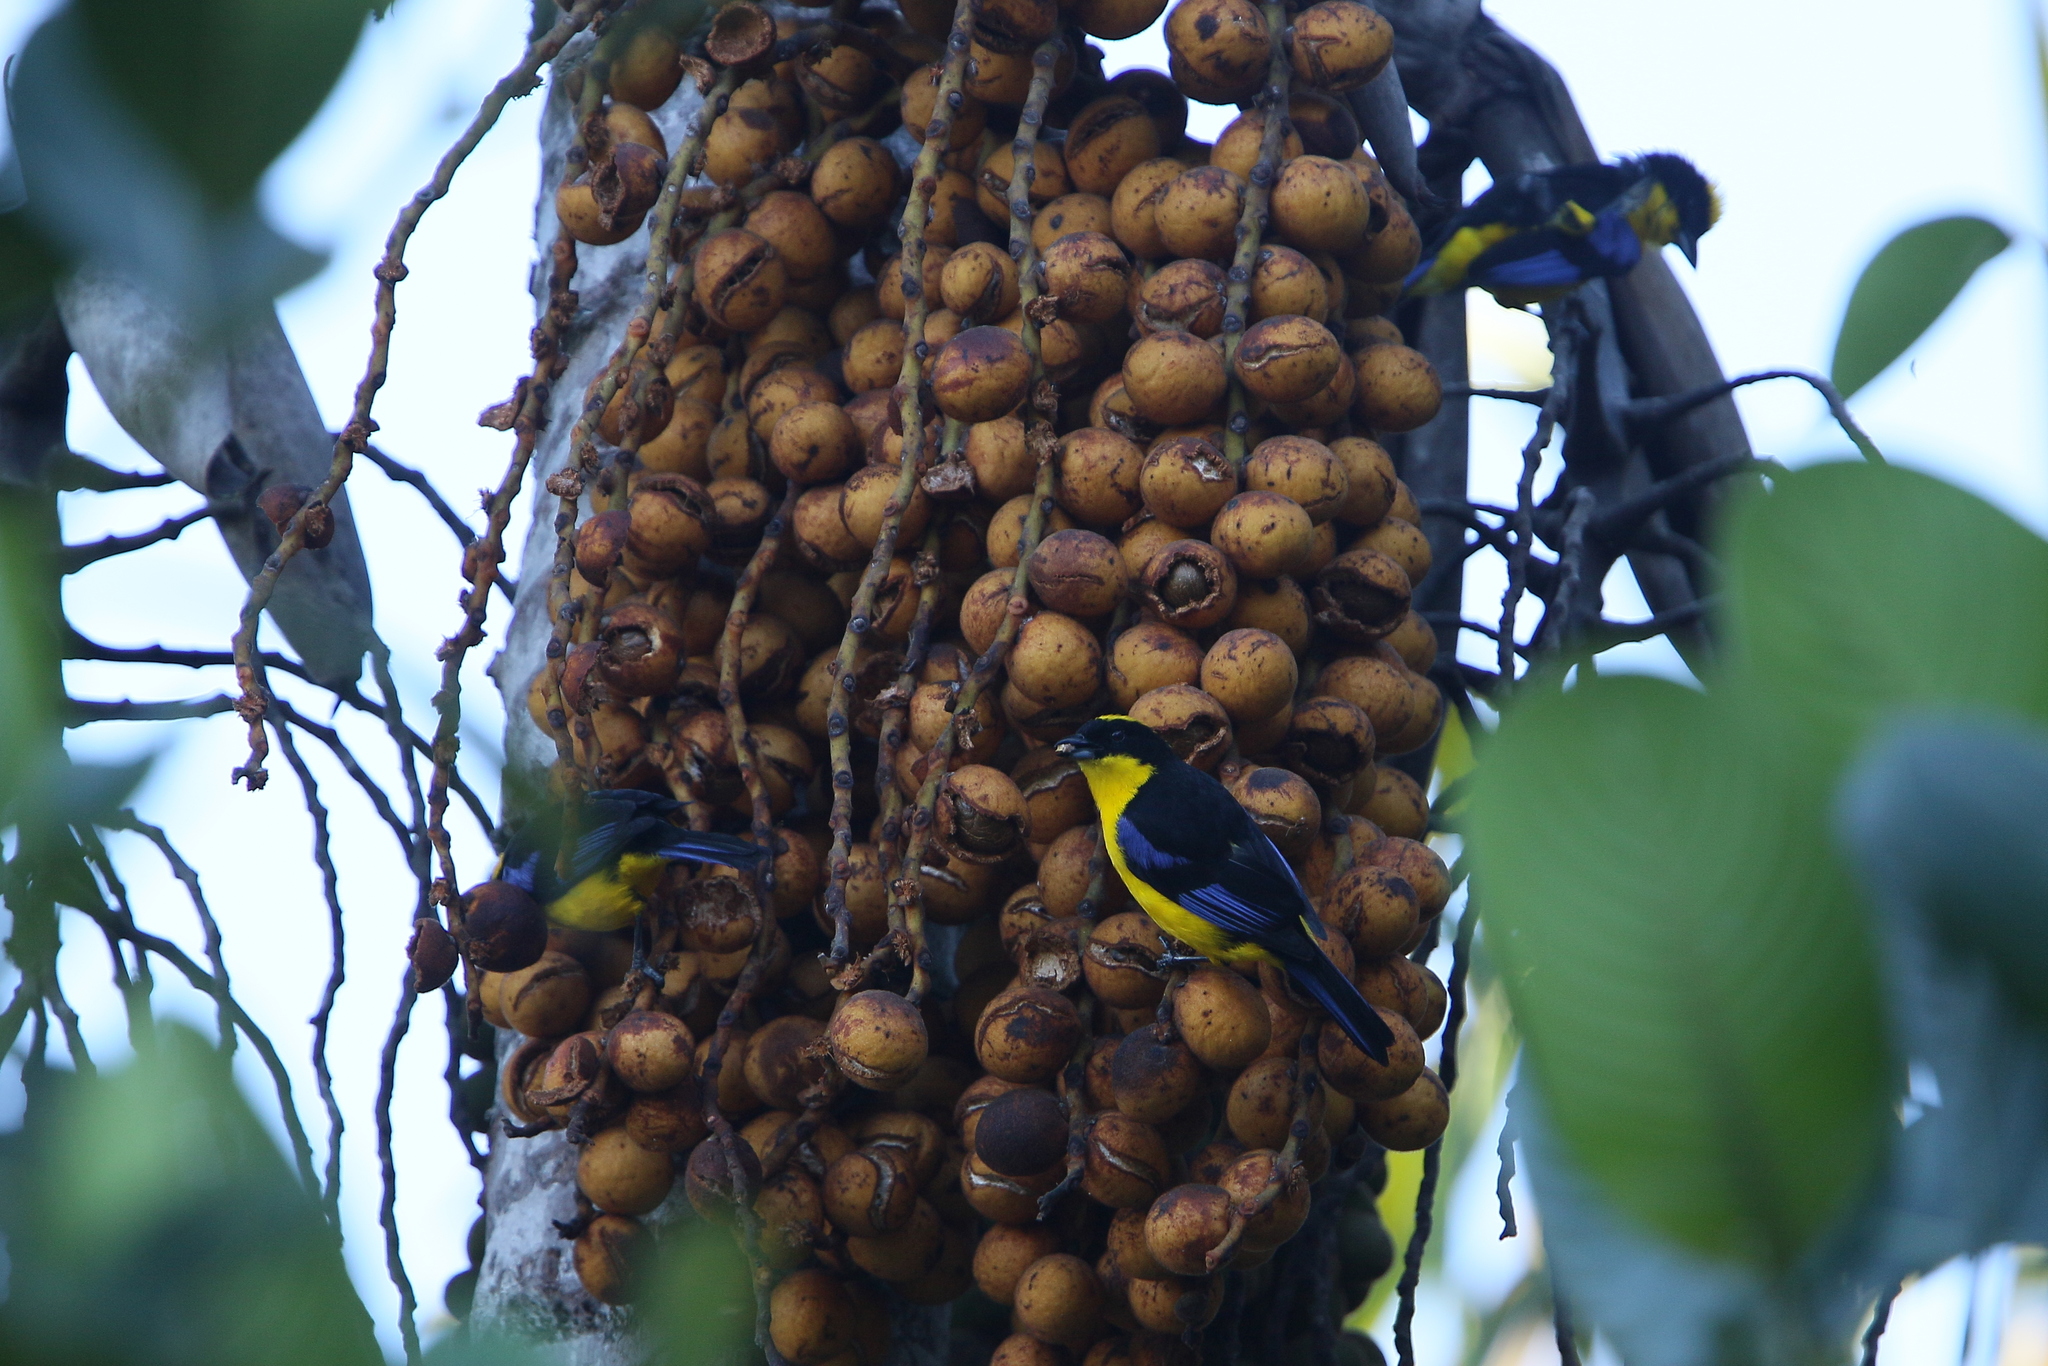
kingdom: Animalia
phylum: Chordata
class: Aves
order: Passeriformes
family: Thraupidae
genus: Anisognathus
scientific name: Anisognathus somptuosus
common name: Blue-winged mountain-tanager
